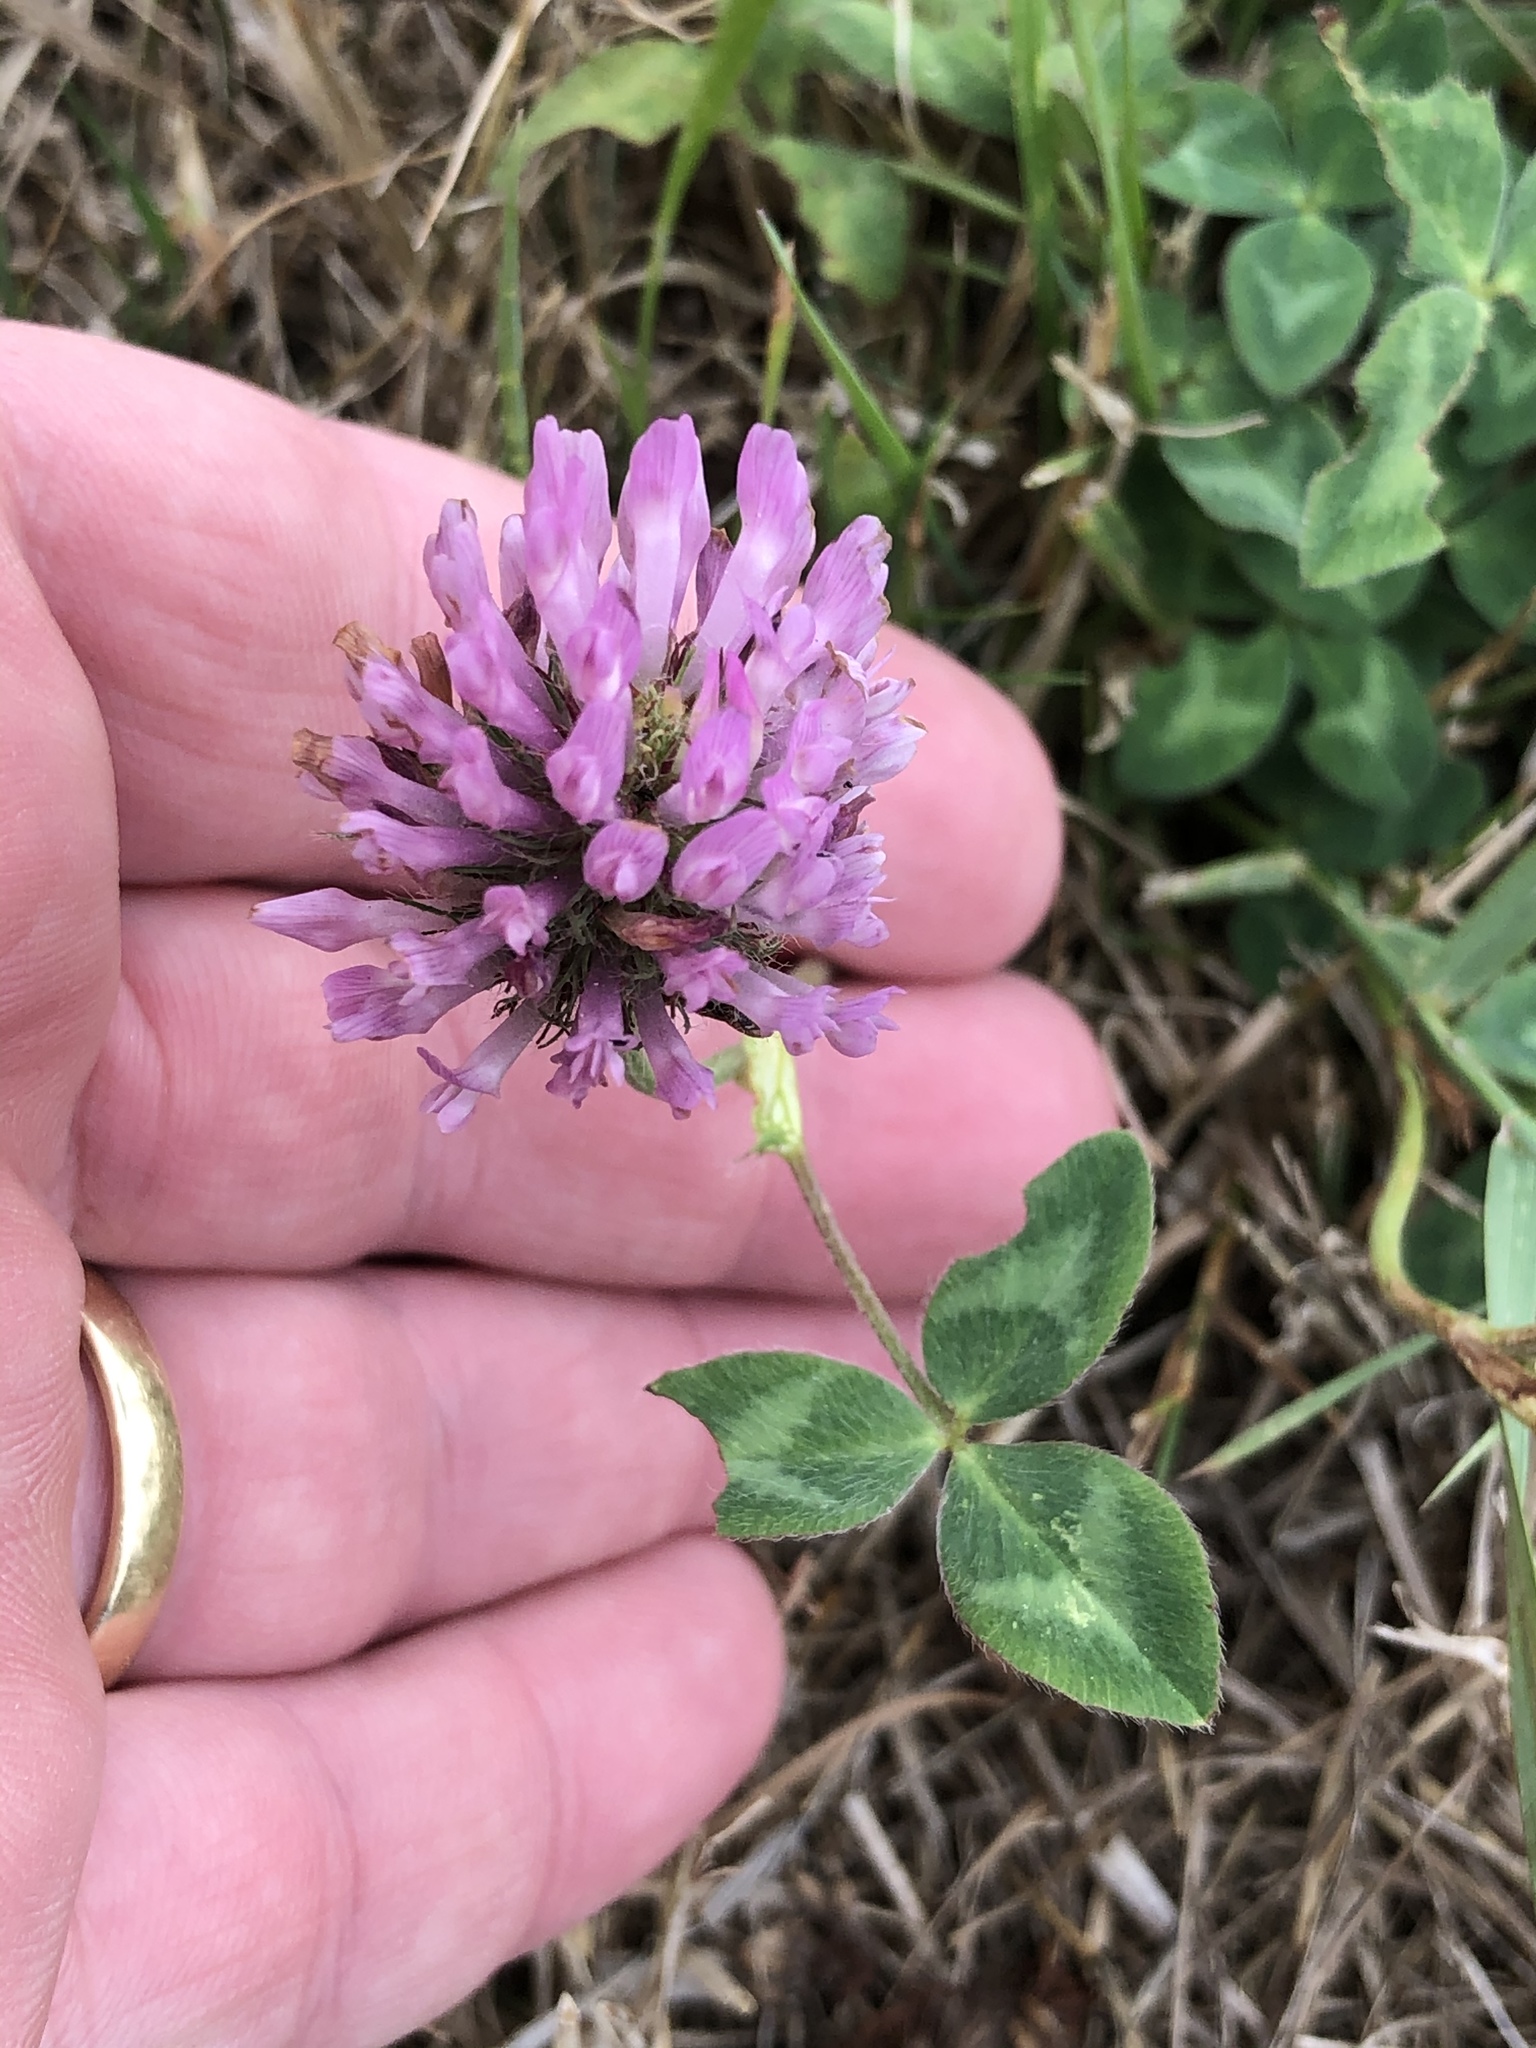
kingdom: Plantae
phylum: Tracheophyta
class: Magnoliopsida
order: Fabales
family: Fabaceae
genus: Trifolium
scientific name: Trifolium pratense
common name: Red clover
